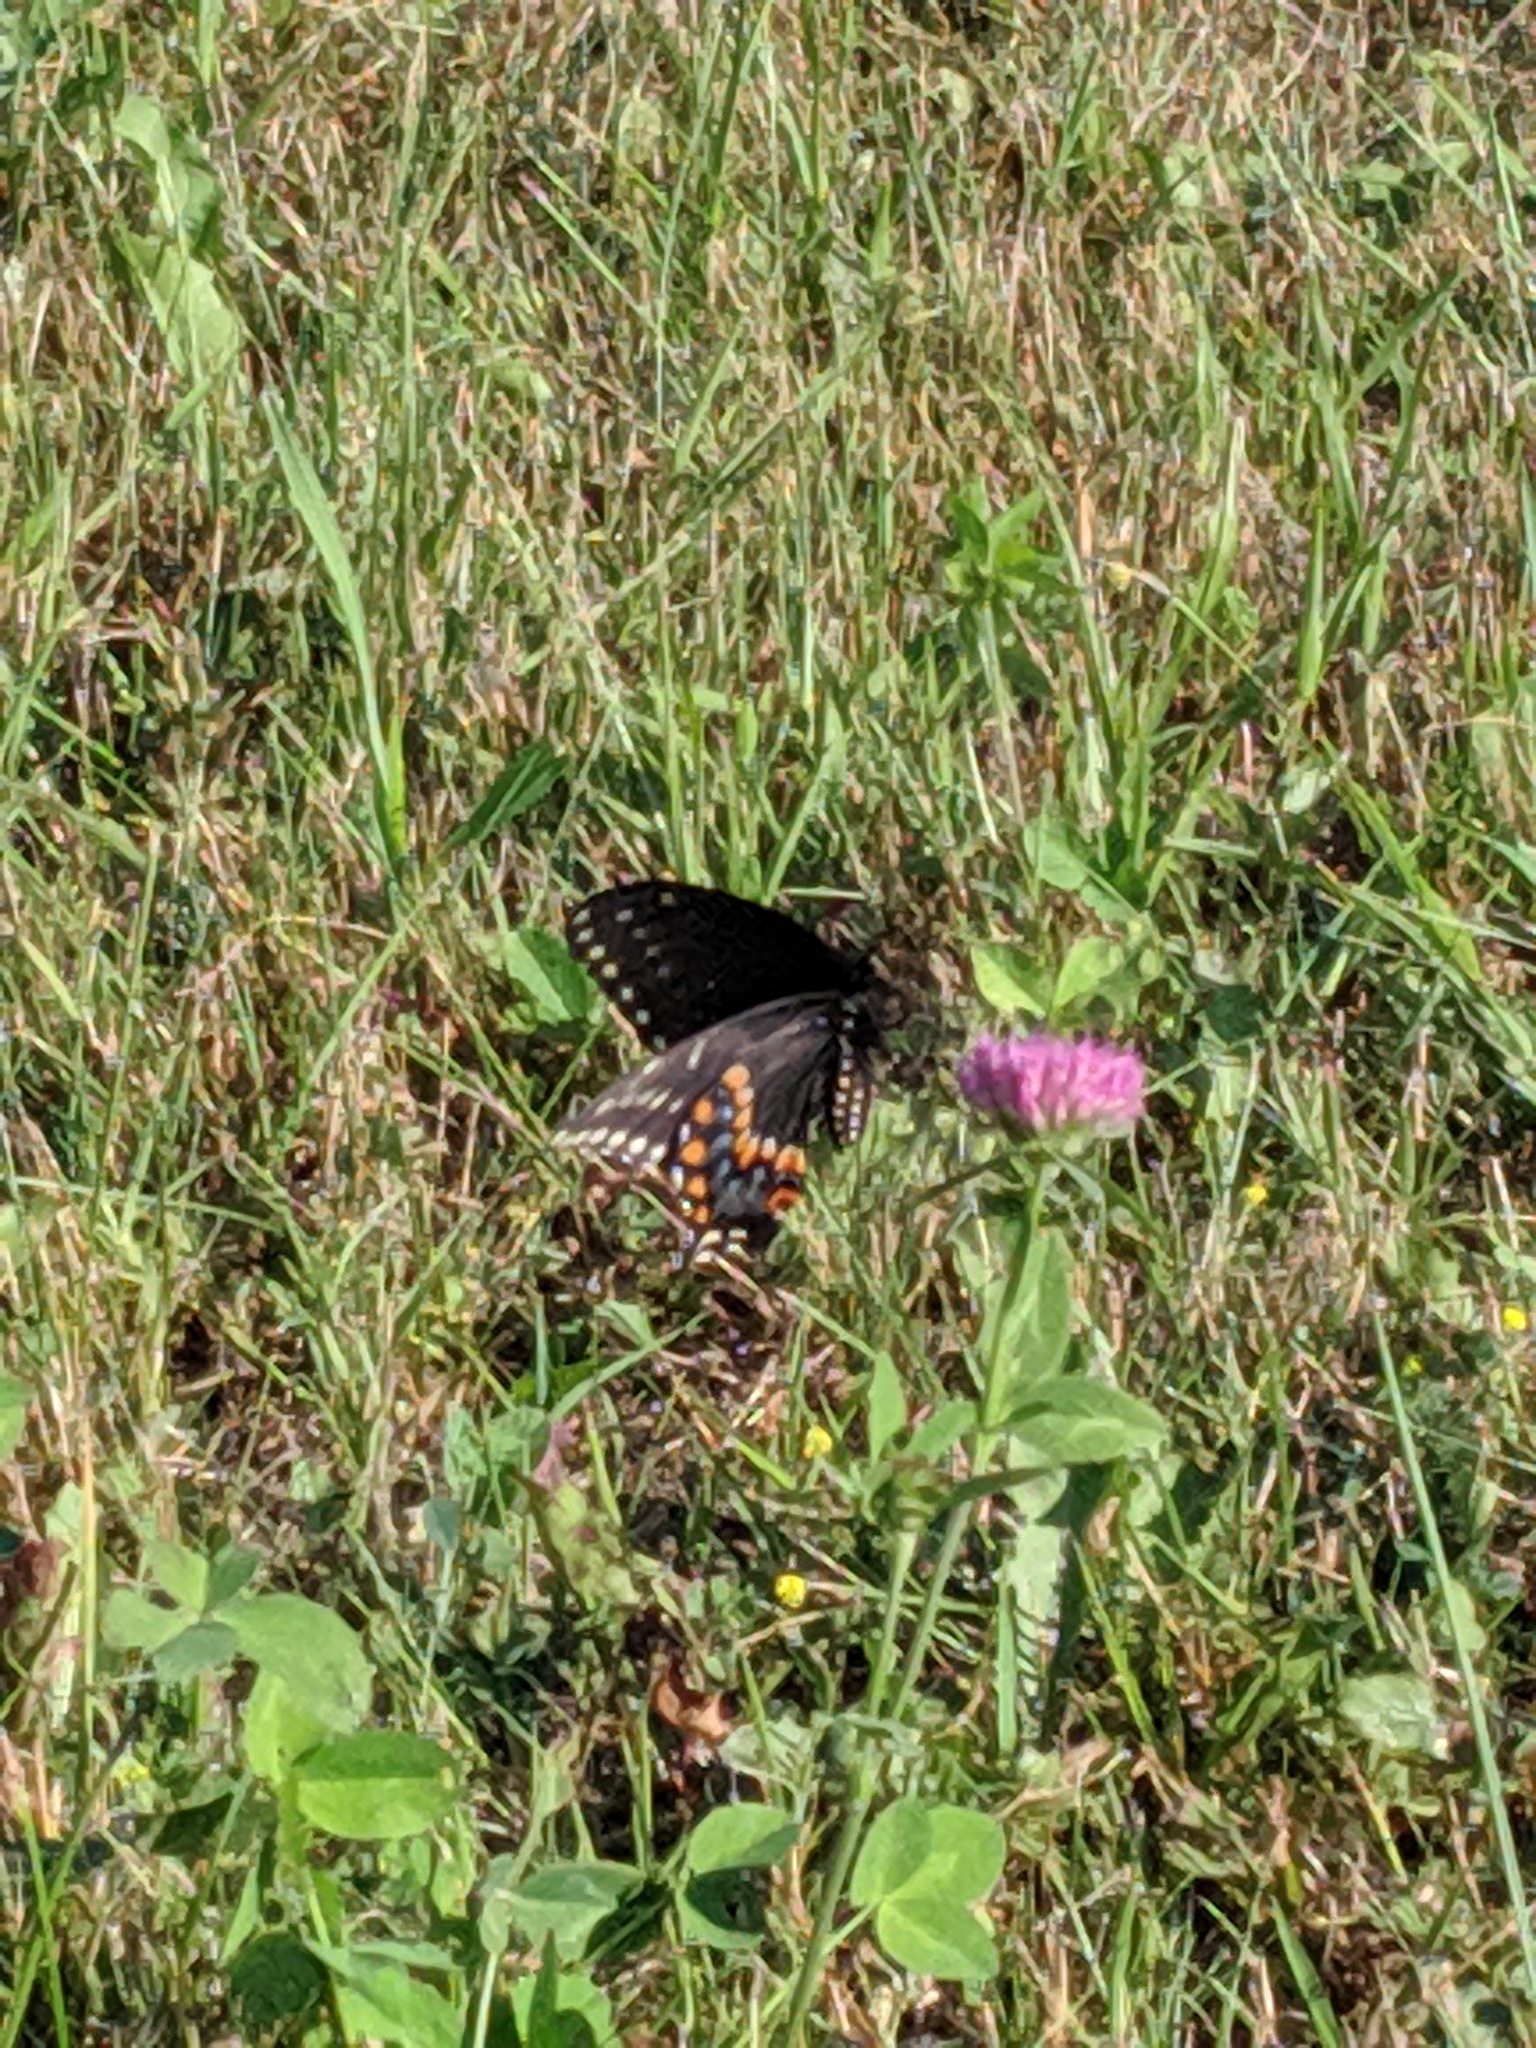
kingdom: Animalia
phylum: Arthropoda
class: Insecta
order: Lepidoptera
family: Papilionidae
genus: Papilio
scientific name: Papilio polyxenes
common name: Black swallowtail
